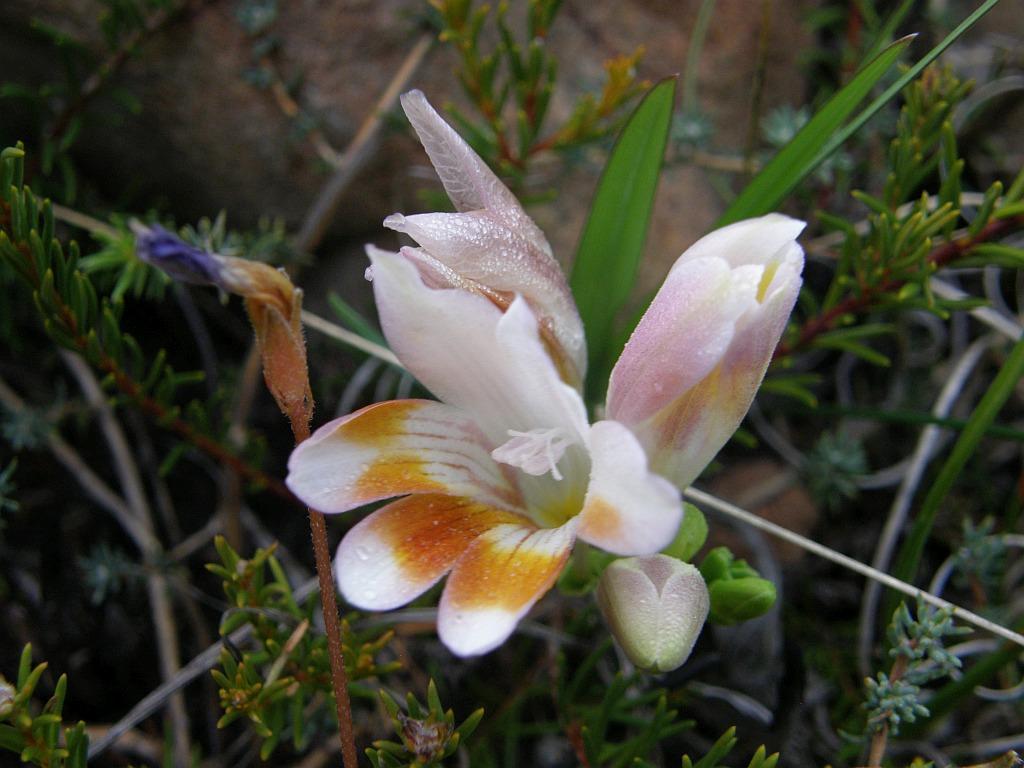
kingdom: Plantae
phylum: Tracheophyta
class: Liliopsida
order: Asparagales
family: Iridaceae
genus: Freesia
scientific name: Freesia caryophyllacea
